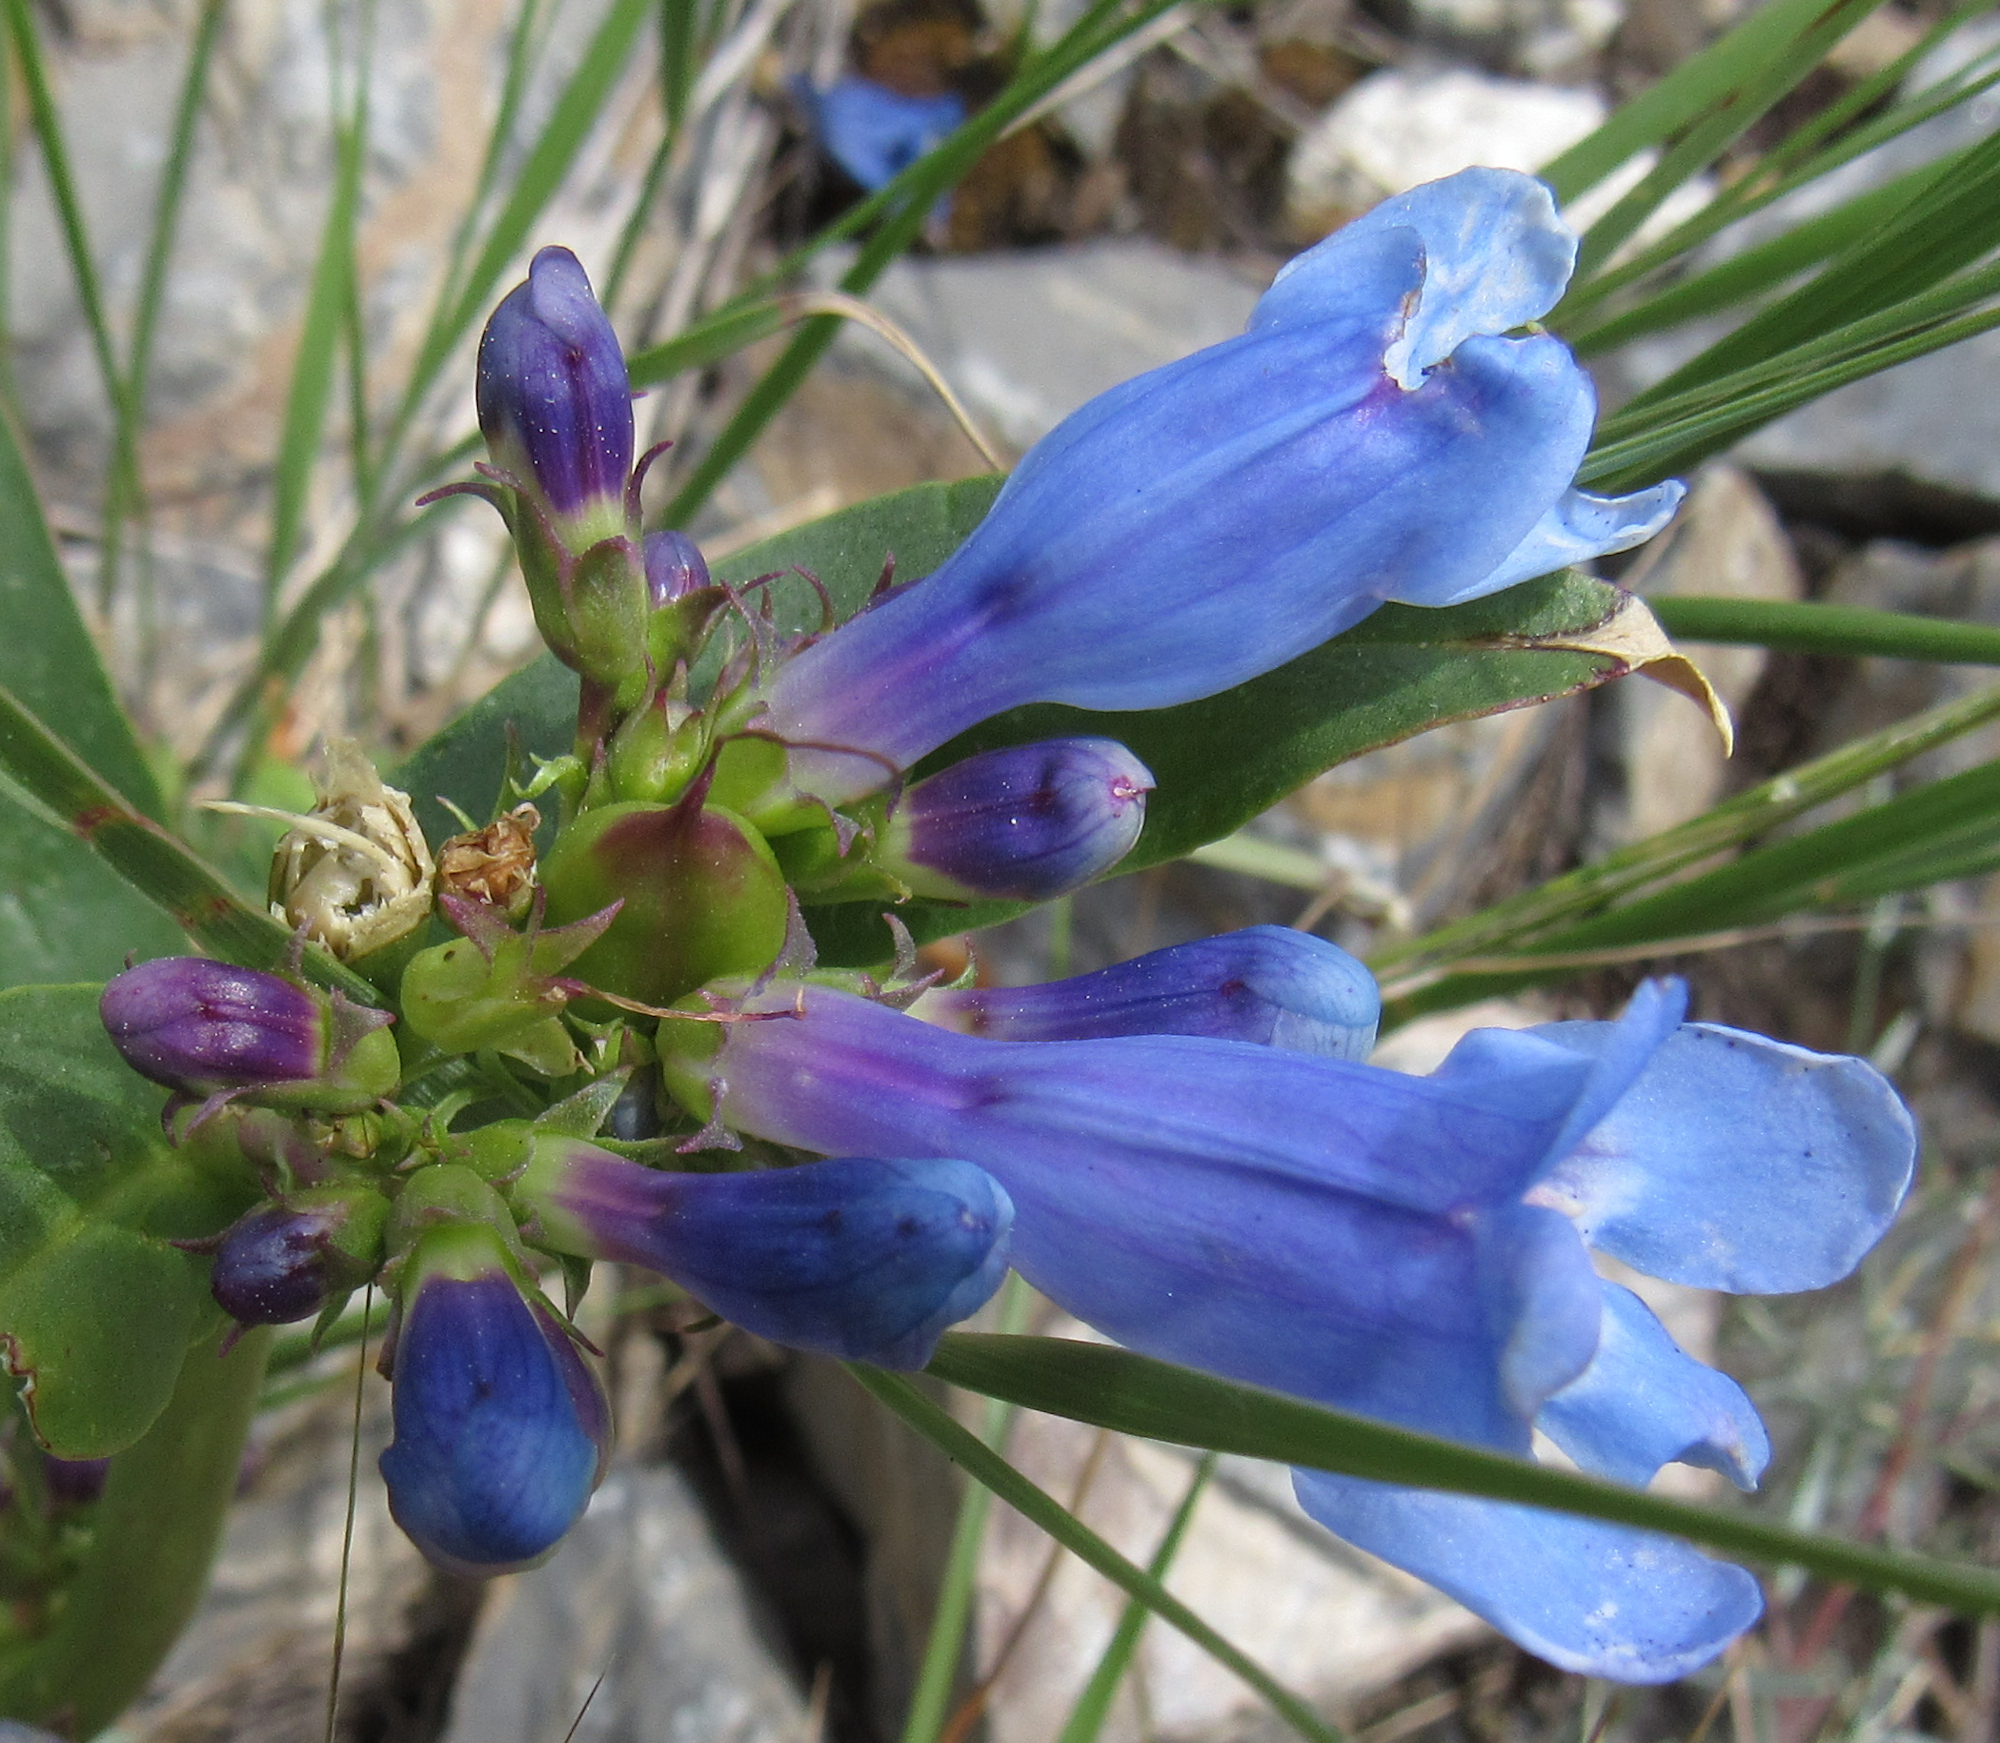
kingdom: Plantae
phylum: Tracheophyta
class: Magnoliopsida
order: Lamiales
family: Plantaginaceae
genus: Penstemon
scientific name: Penstemon cyaneus
